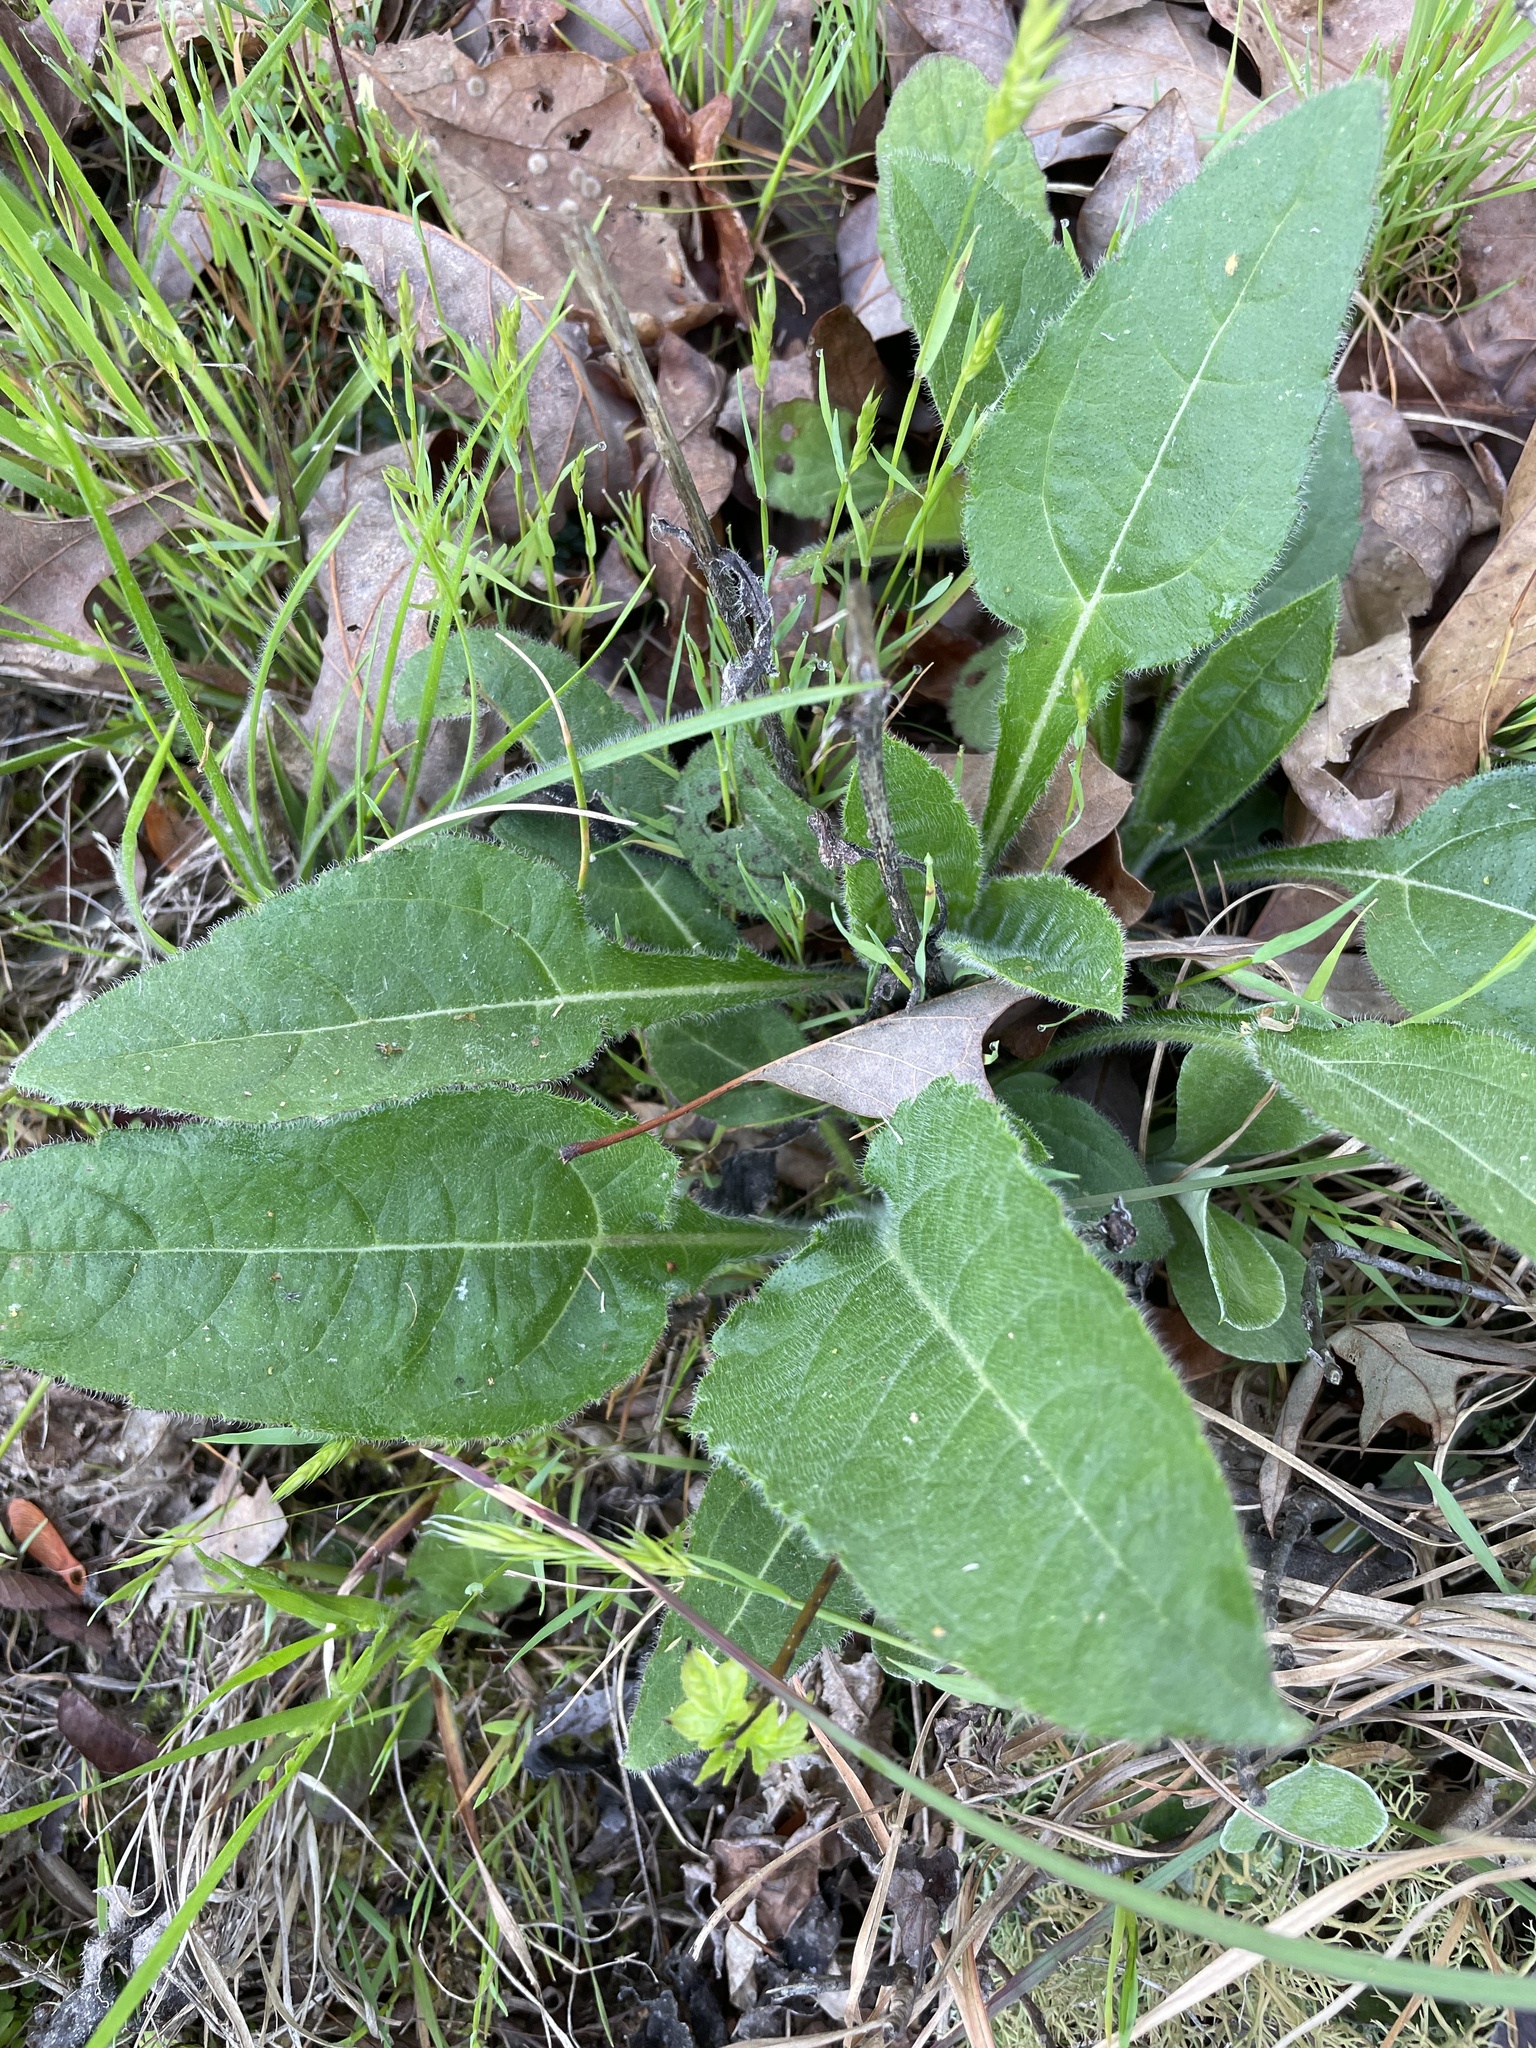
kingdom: Plantae
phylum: Tracheophyta
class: Magnoliopsida
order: Asterales
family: Asteraceae
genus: Helianthus
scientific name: Helianthus atrorubens
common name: Dark-eyed sunflower
